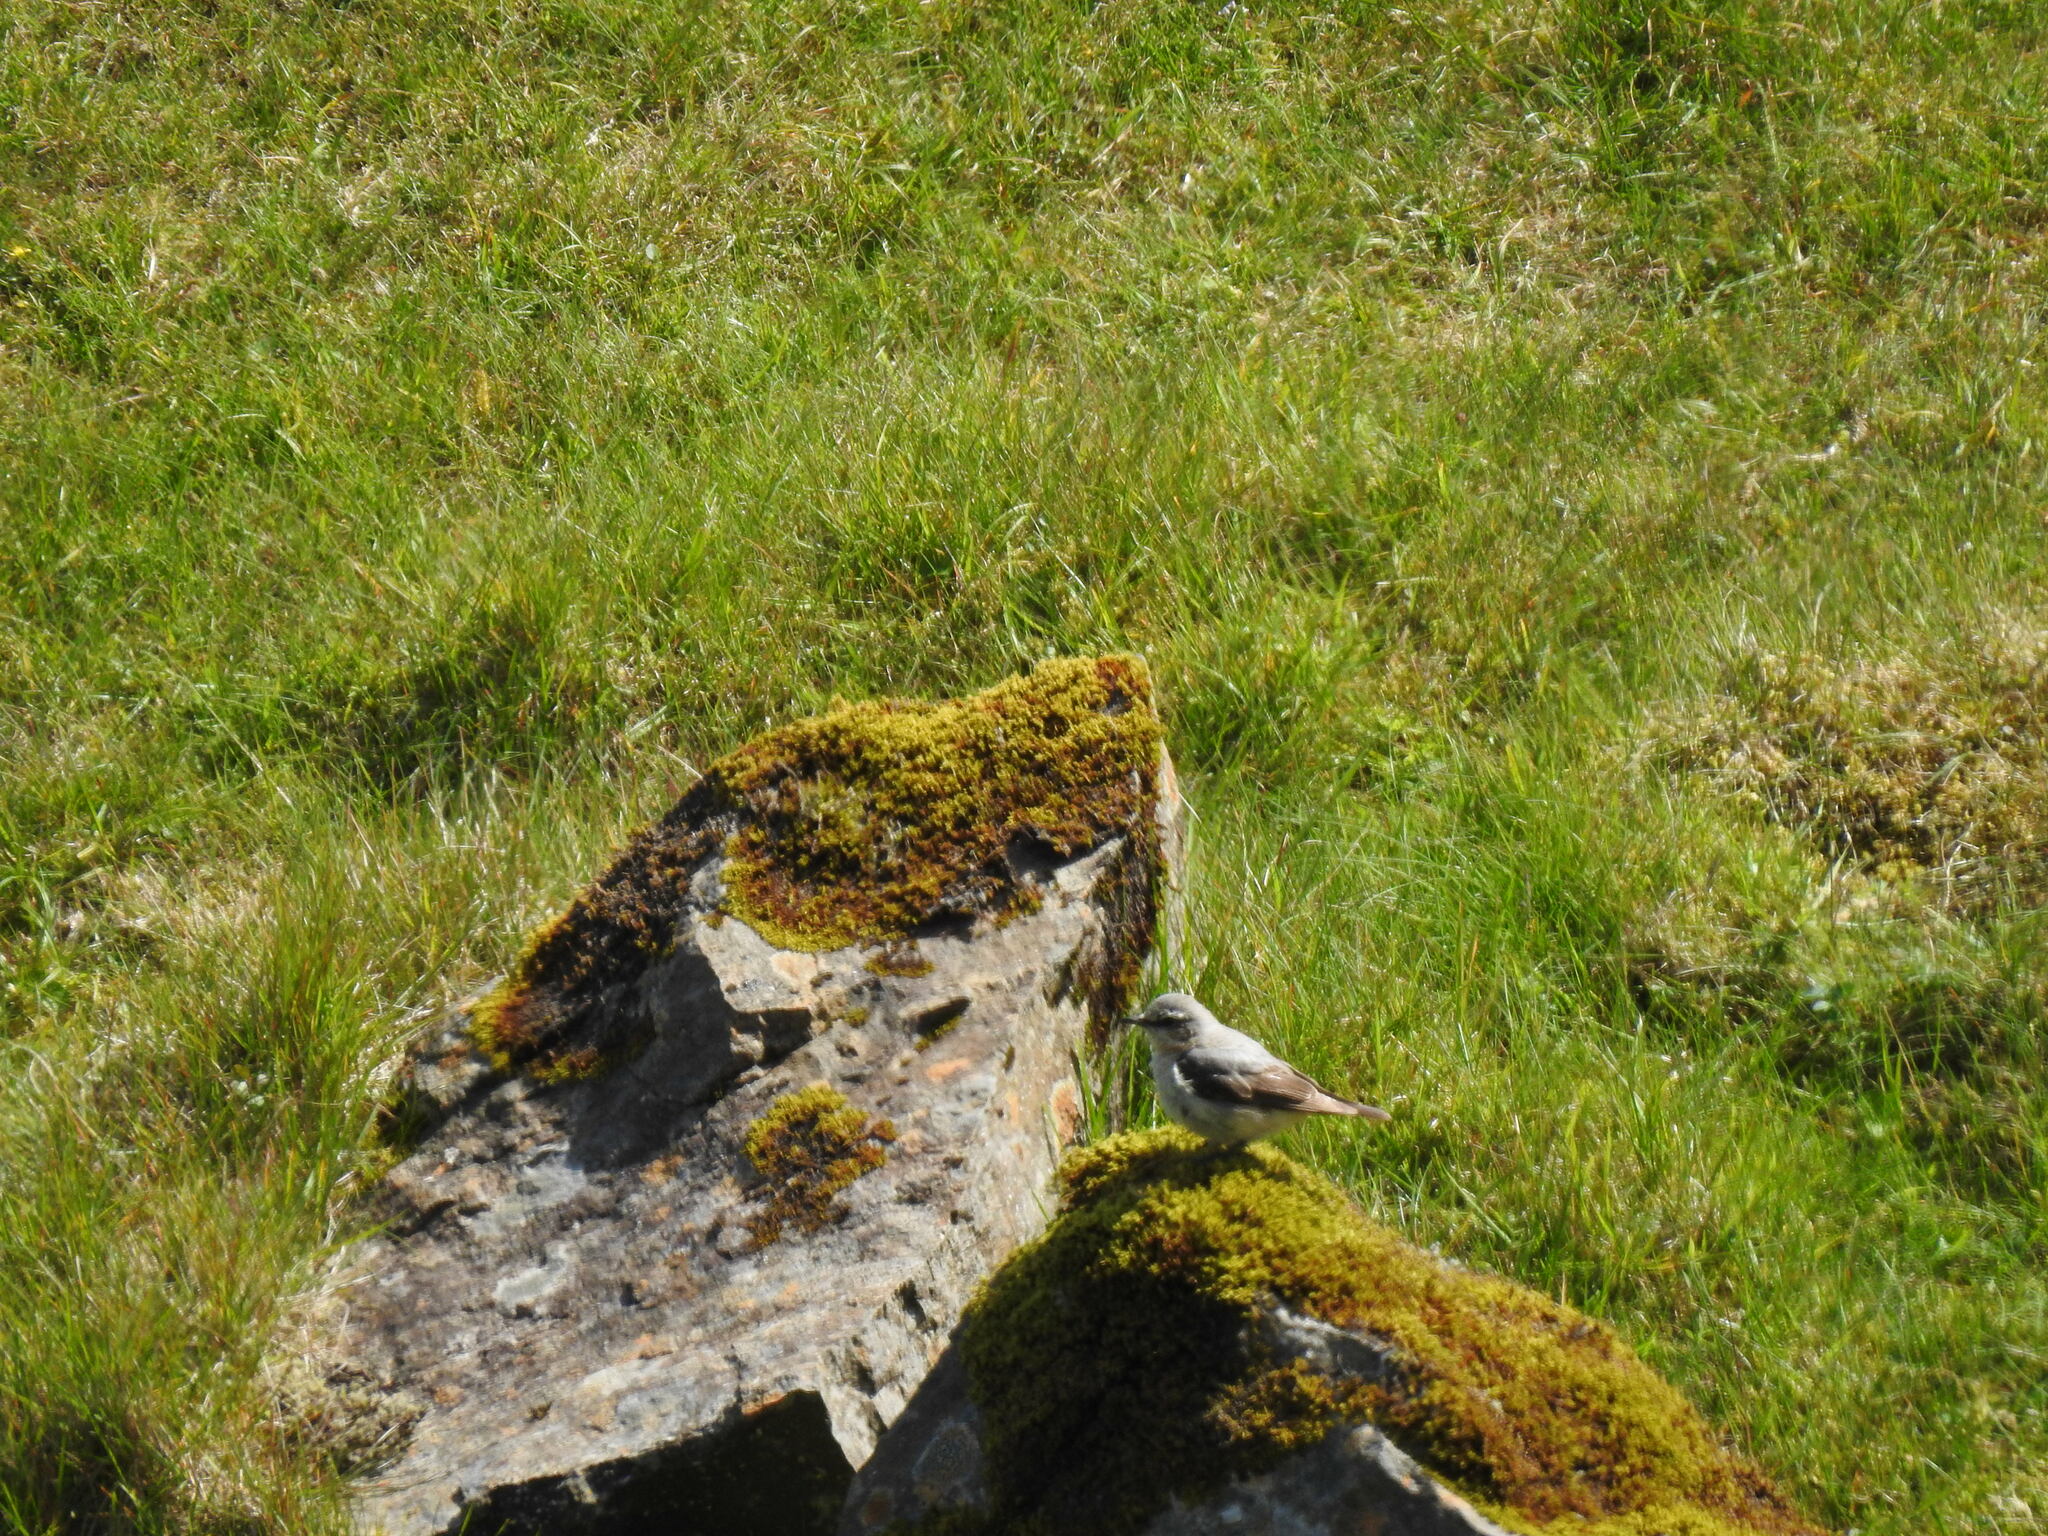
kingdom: Animalia
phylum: Chordata
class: Aves
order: Passeriformes
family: Muscicapidae
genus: Oenanthe
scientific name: Oenanthe oenanthe
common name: Northern wheatear
